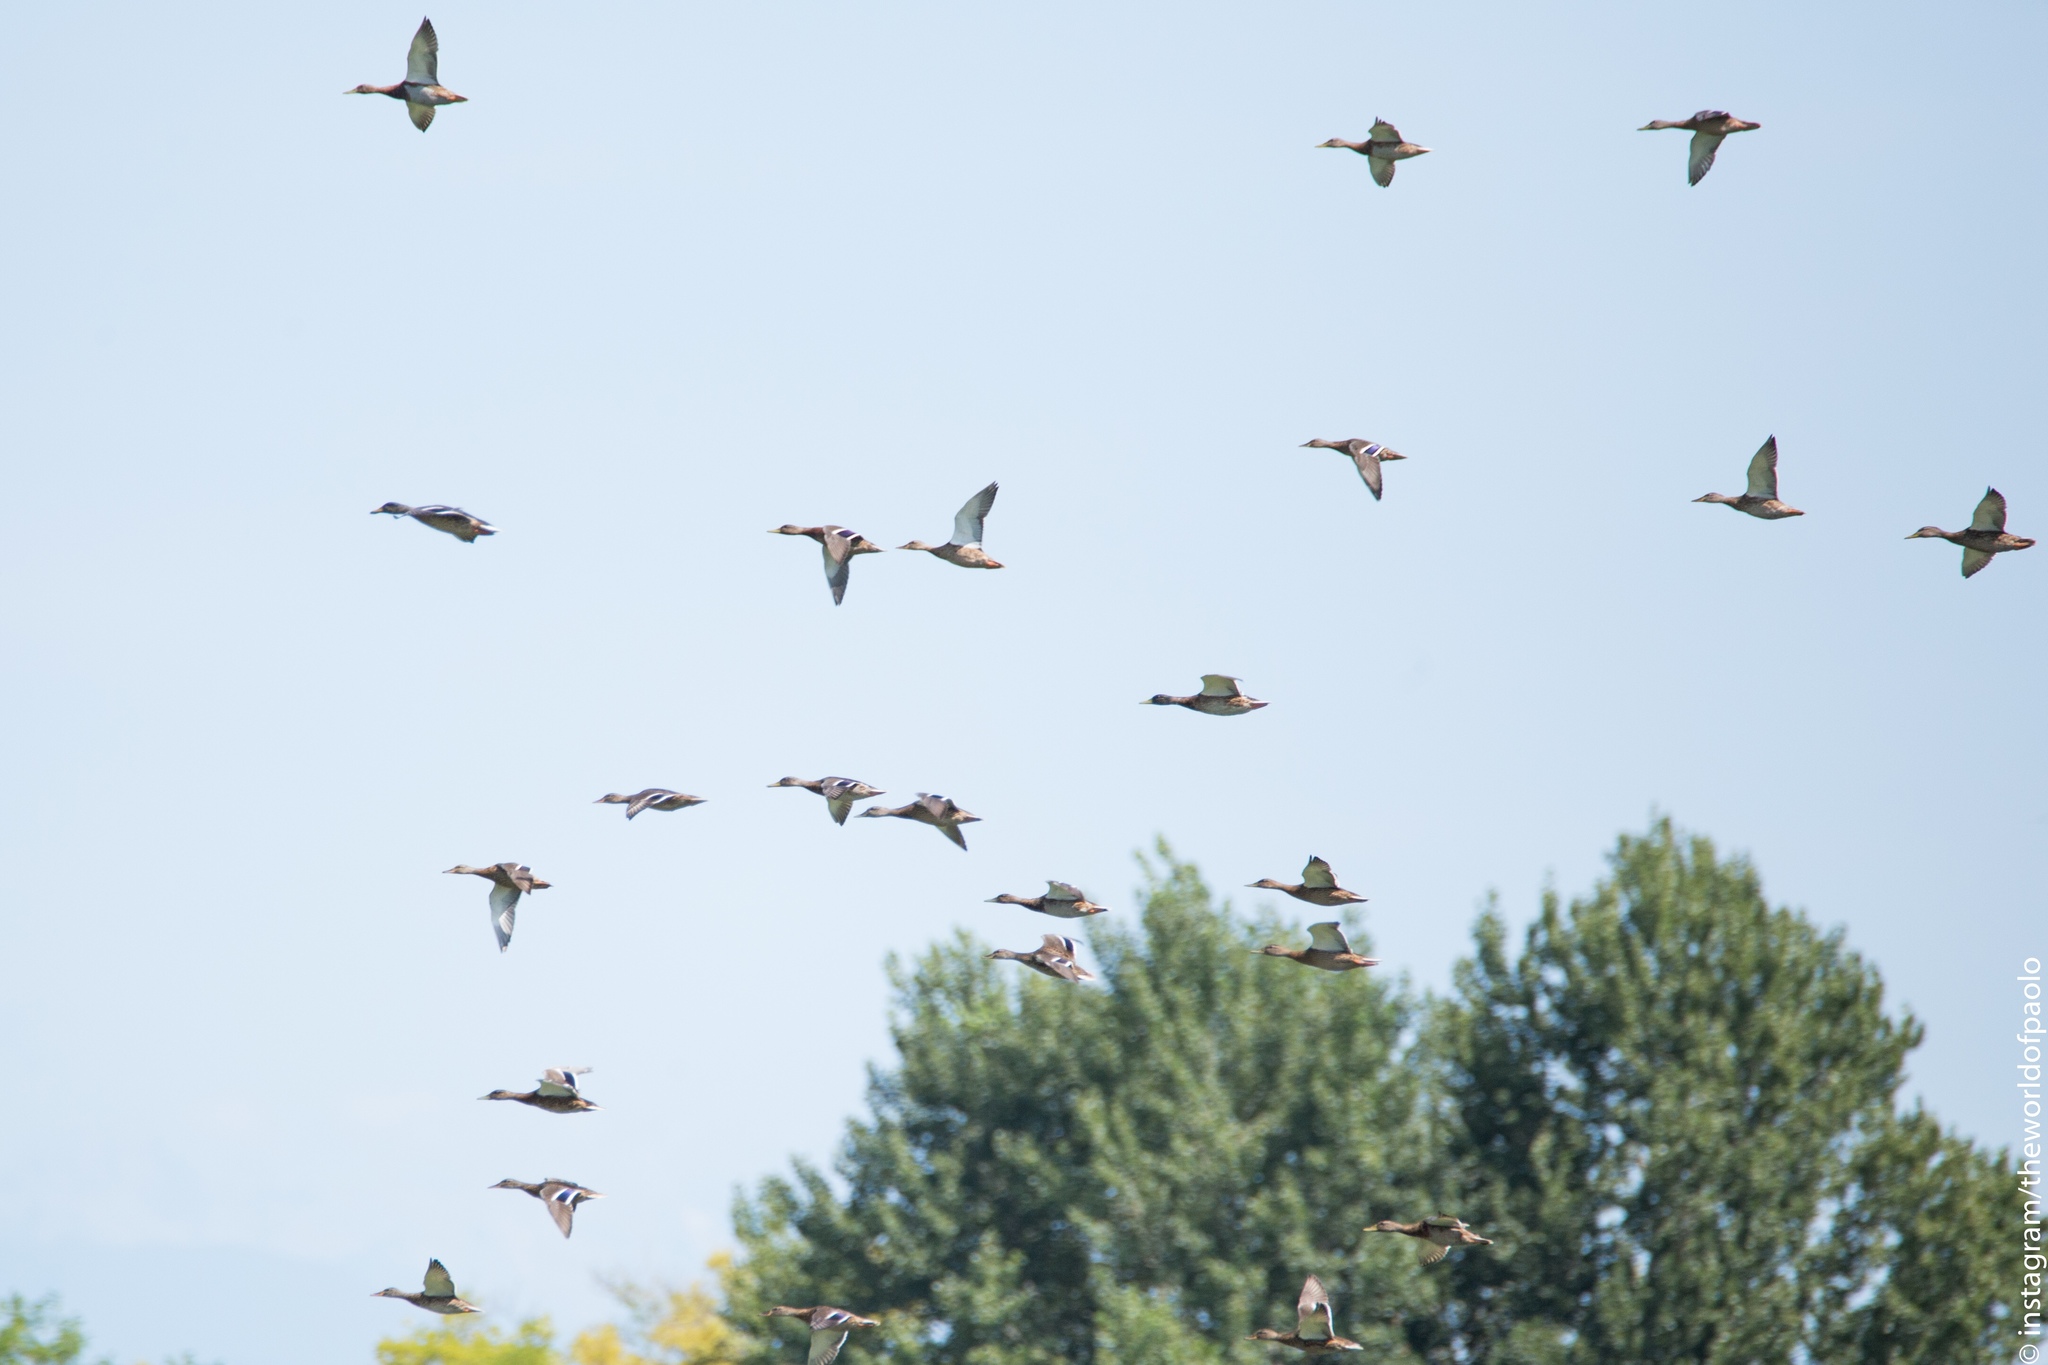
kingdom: Animalia
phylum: Chordata
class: Aves
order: Anseriformes
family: Anatidae
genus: Anas
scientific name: Anas platyrhynchos
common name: Mallard
